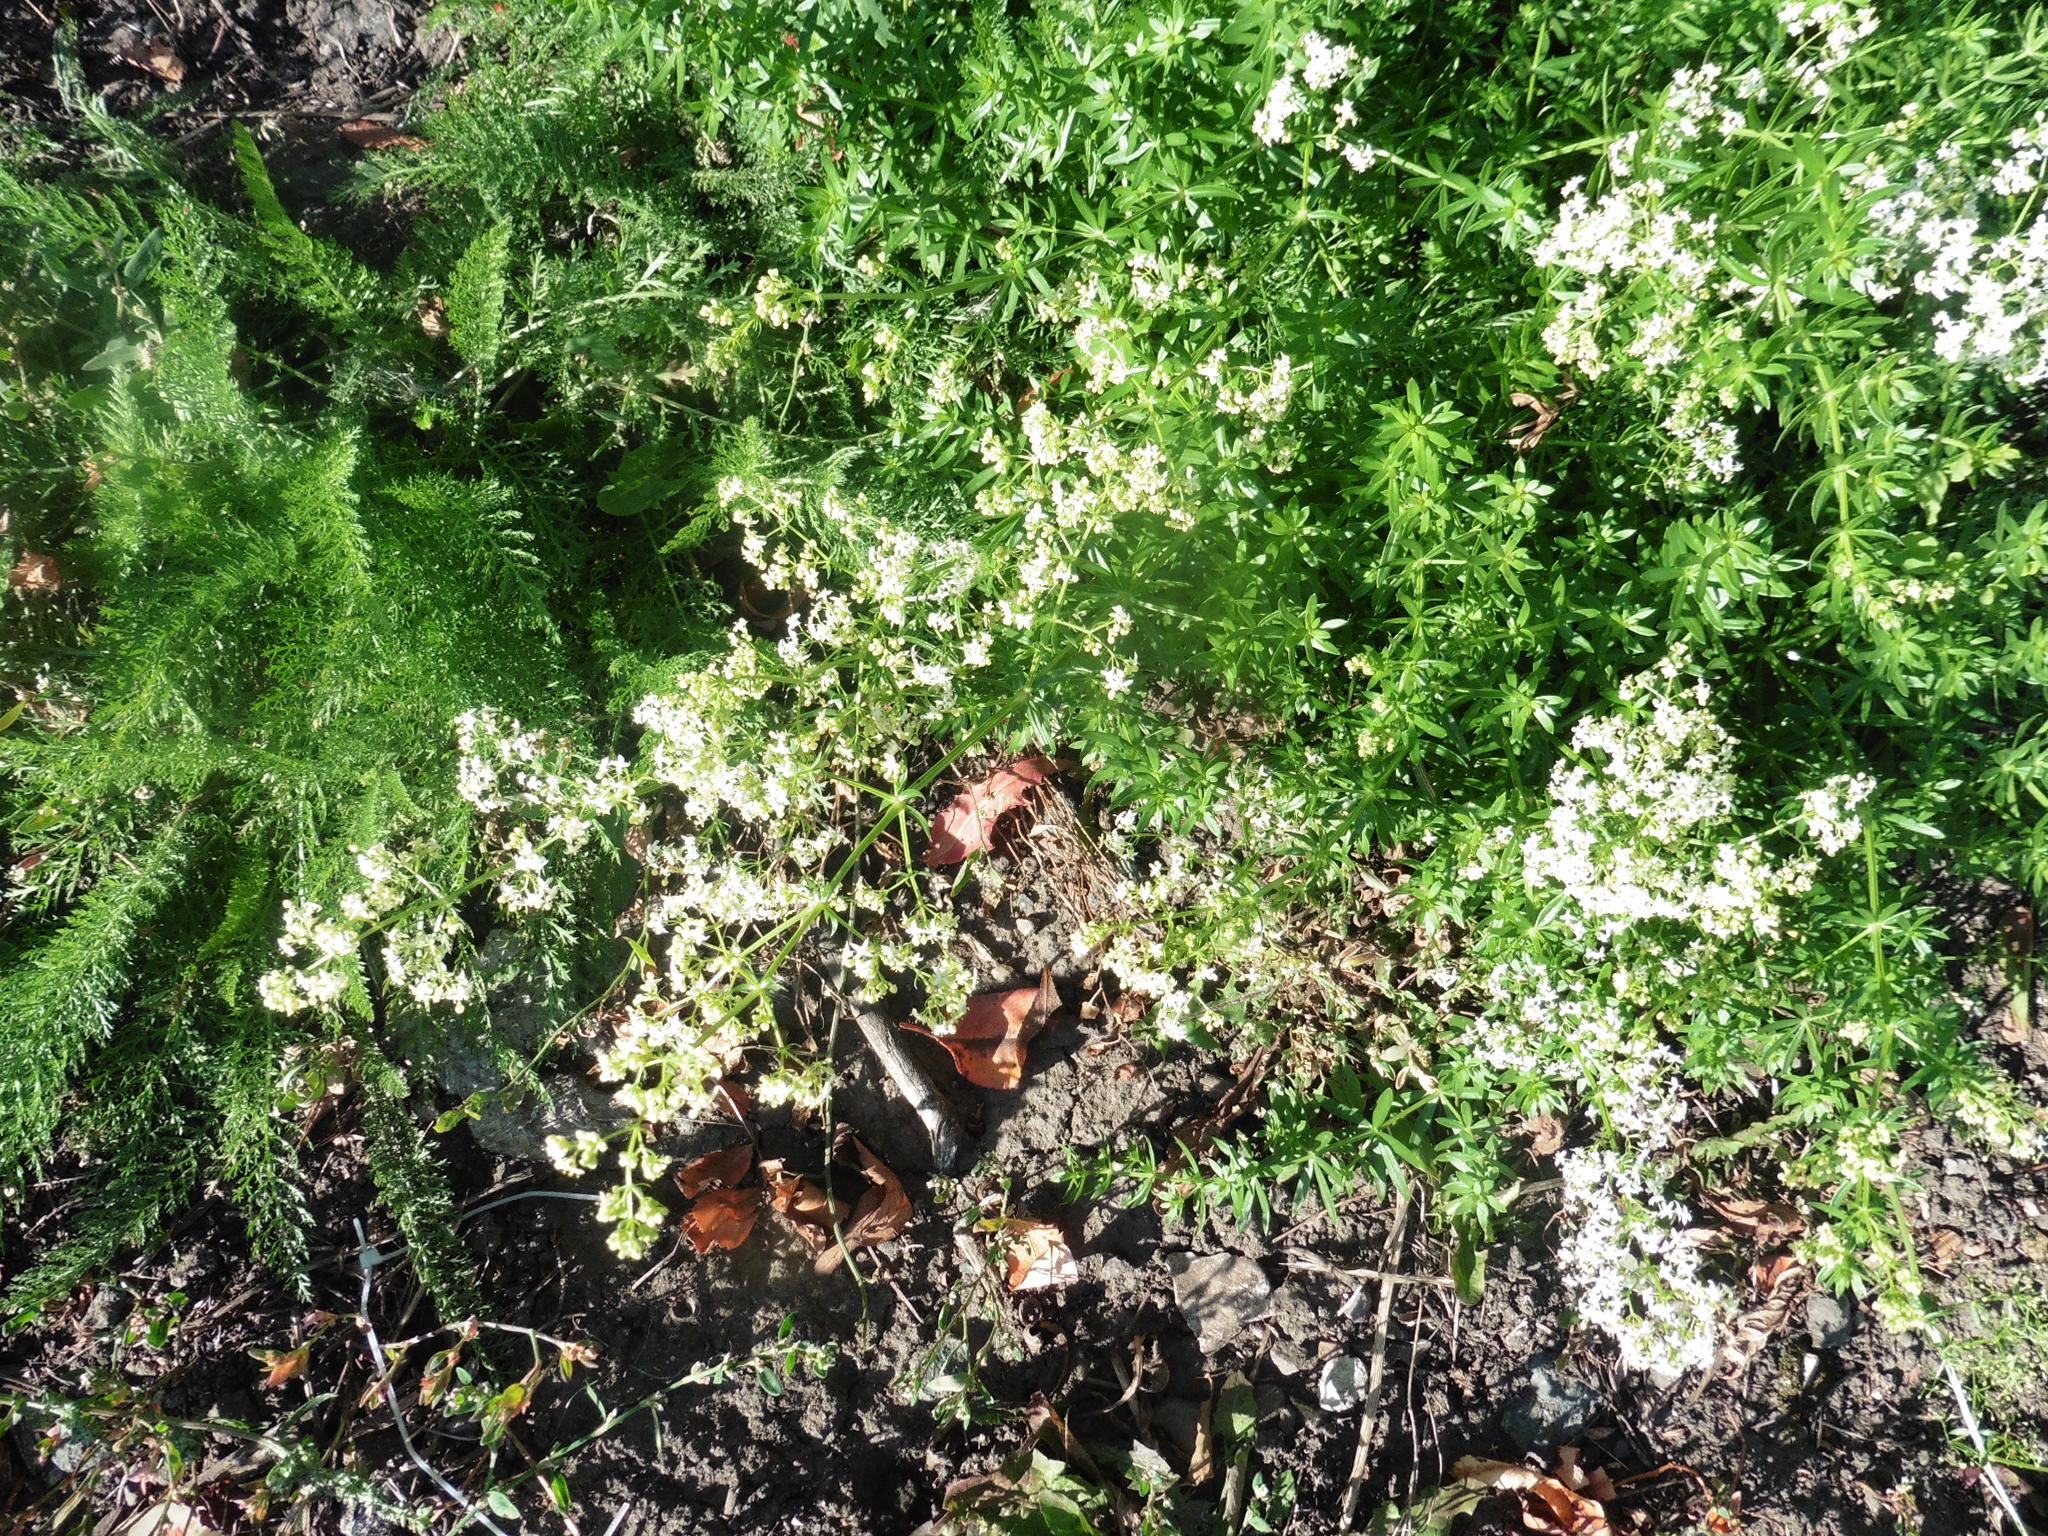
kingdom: Plantae
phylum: Tracheophyta
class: Magnoliopsida
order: Gentianales
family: Rubiaceae
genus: Galium
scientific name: Galium mollugo
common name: Hedge bedstraw
